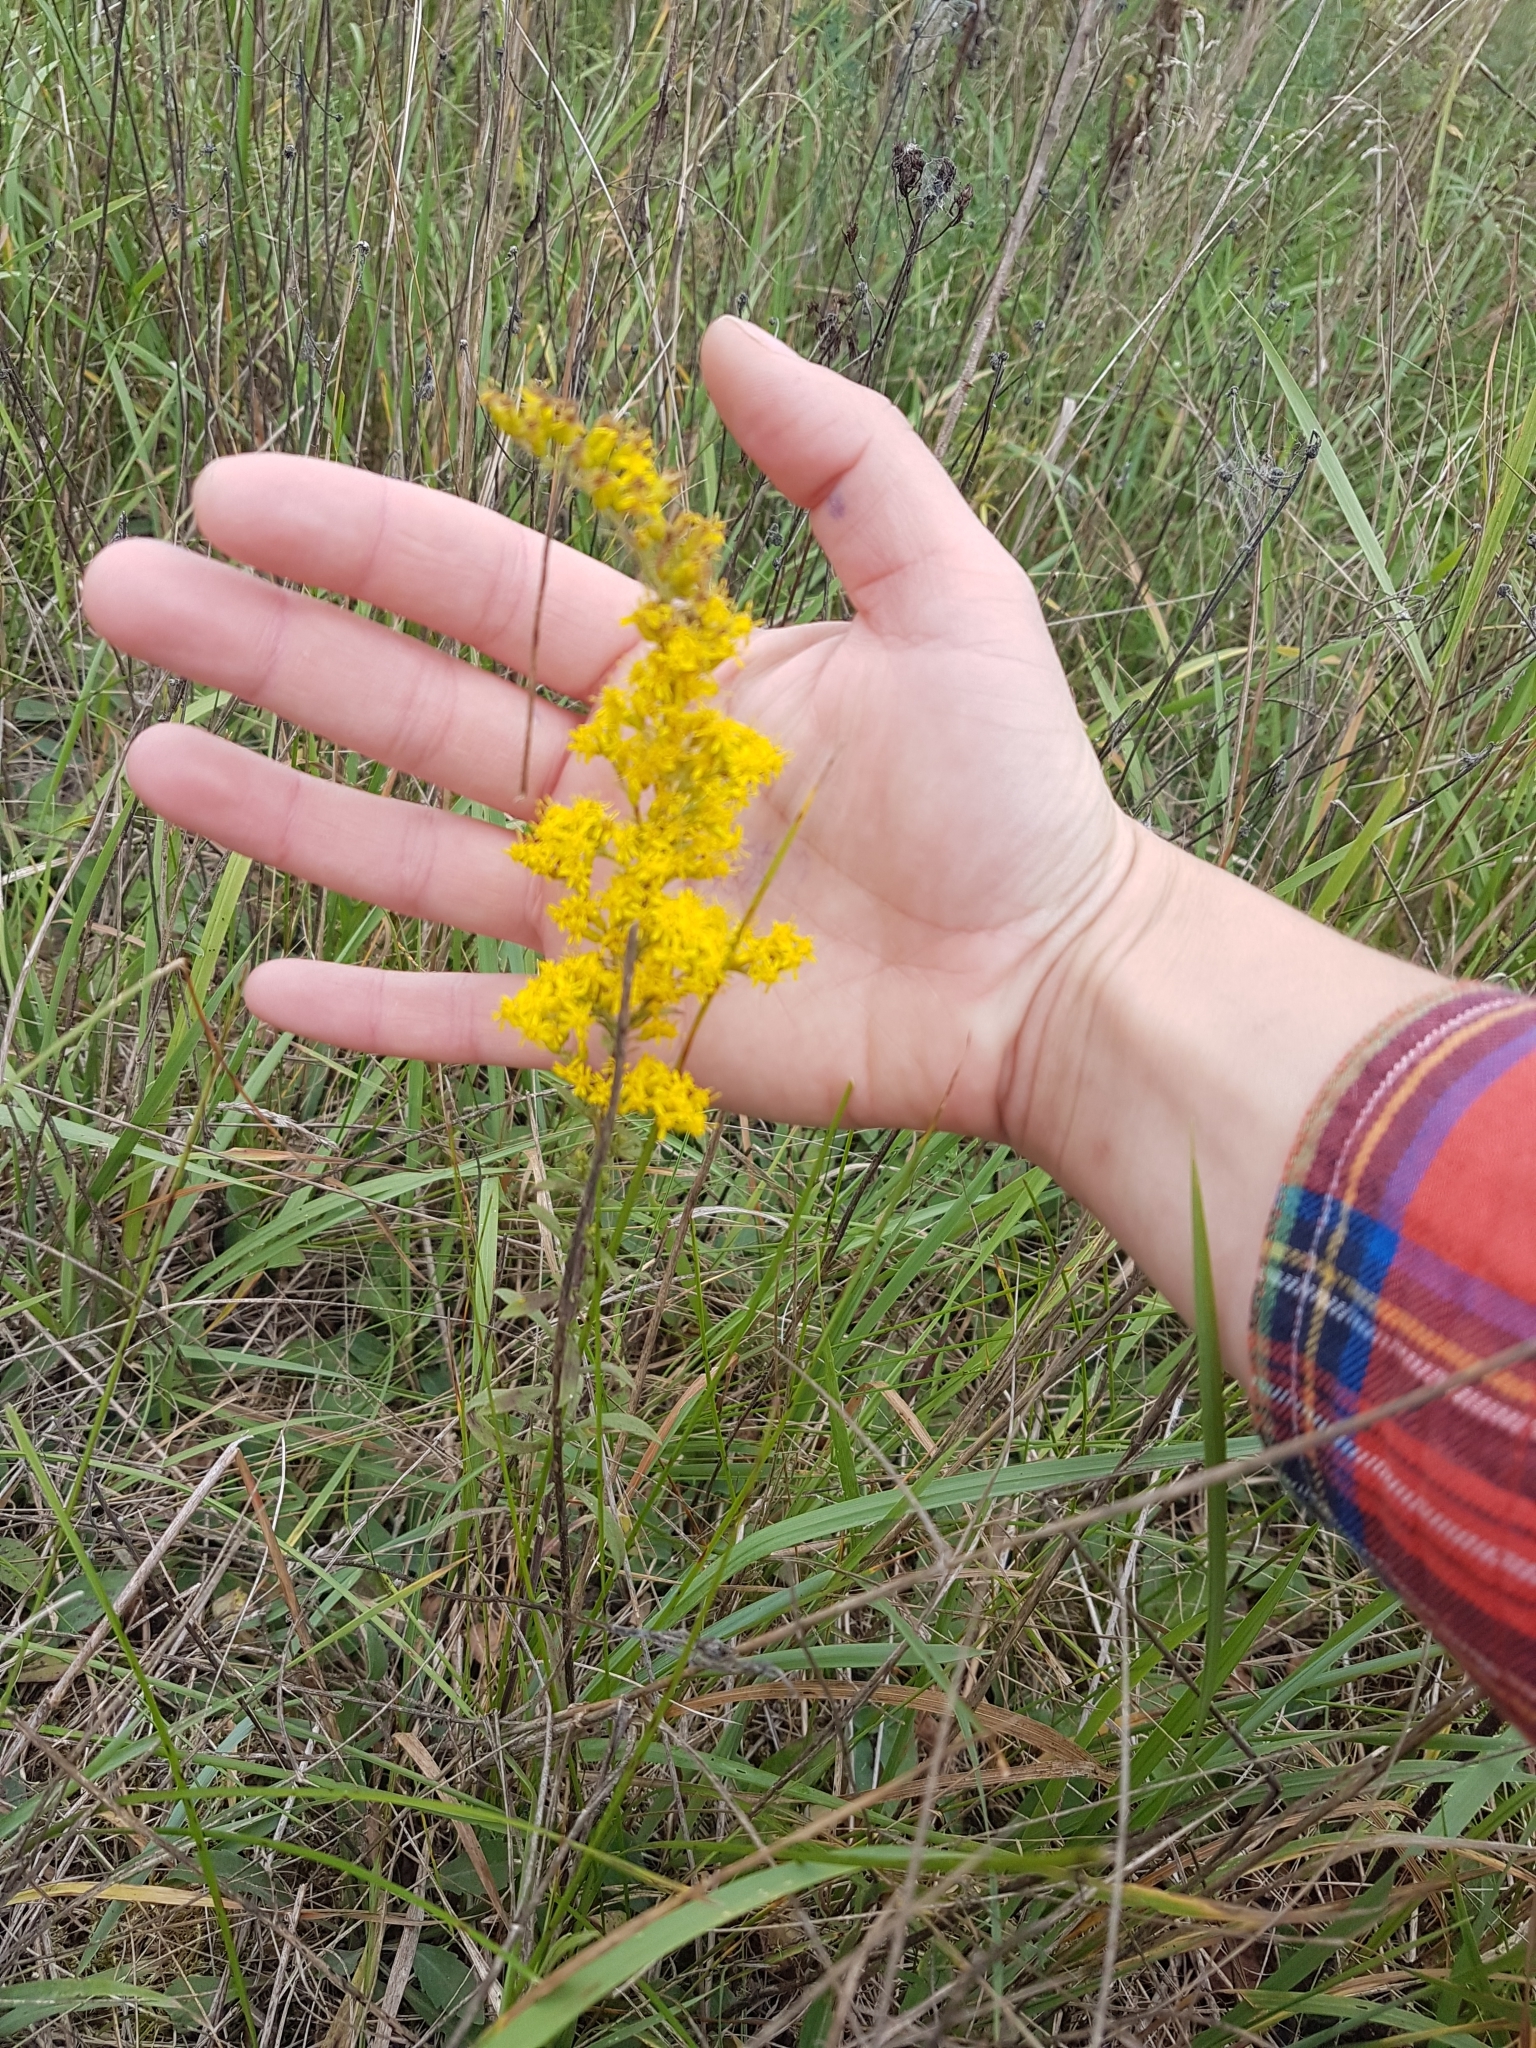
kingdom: Plantae
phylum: Tracheophyta
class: Magnoliopsida
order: Asterales
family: Asteraceae
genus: Solidago
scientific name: Solidago nemoralis
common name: Grey goldenrod
